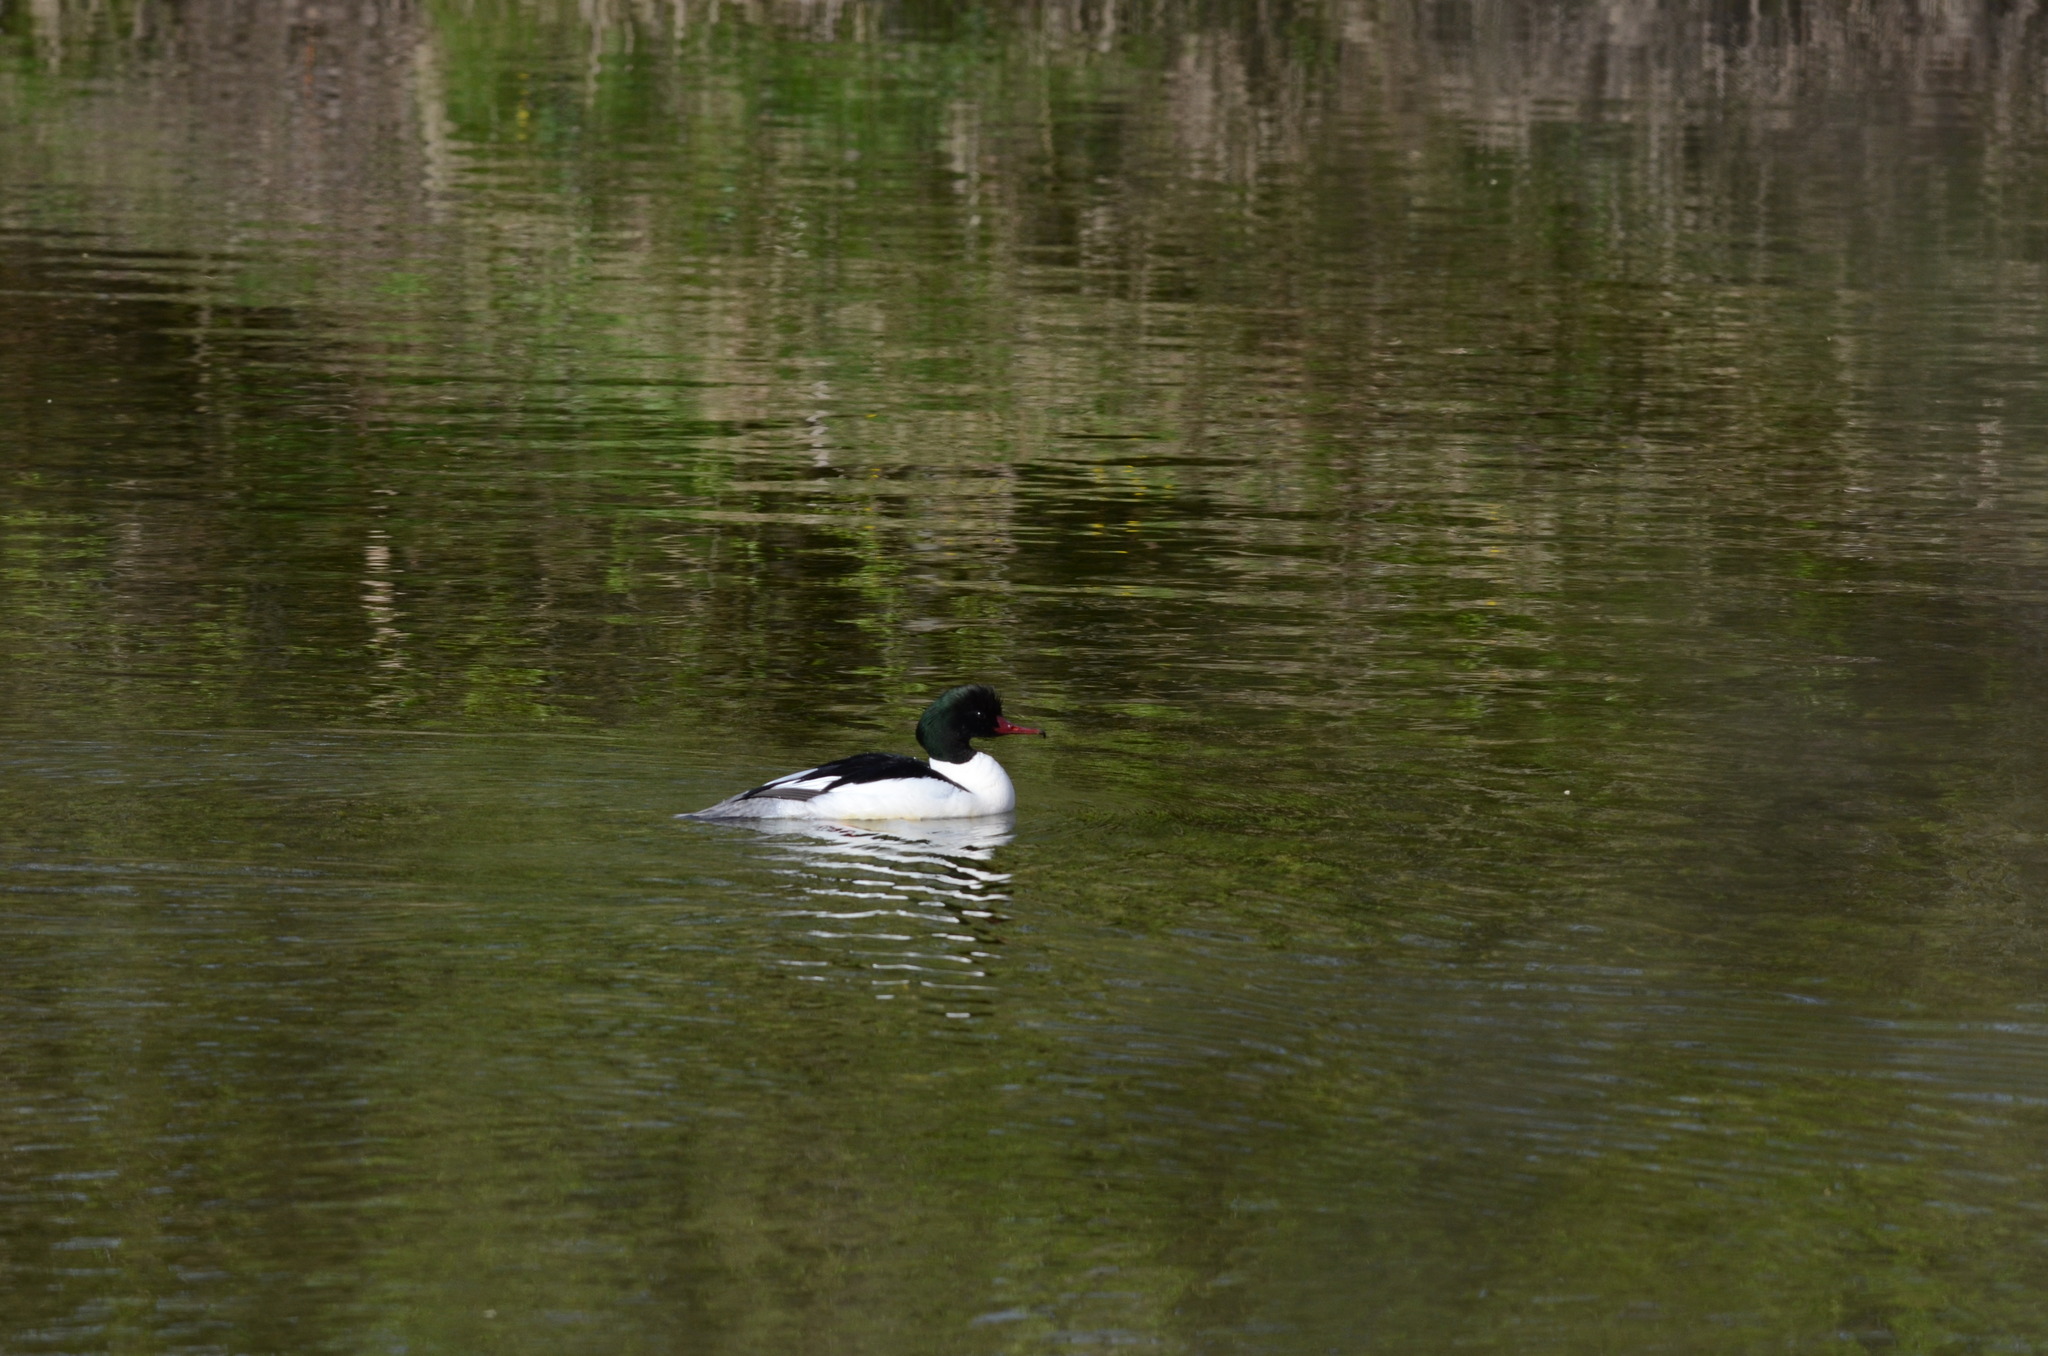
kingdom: Animalia
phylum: Chordata
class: Aves
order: Anseriformes
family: Anatidae
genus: Mergus
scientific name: Mergus merganser
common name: Common merganser
